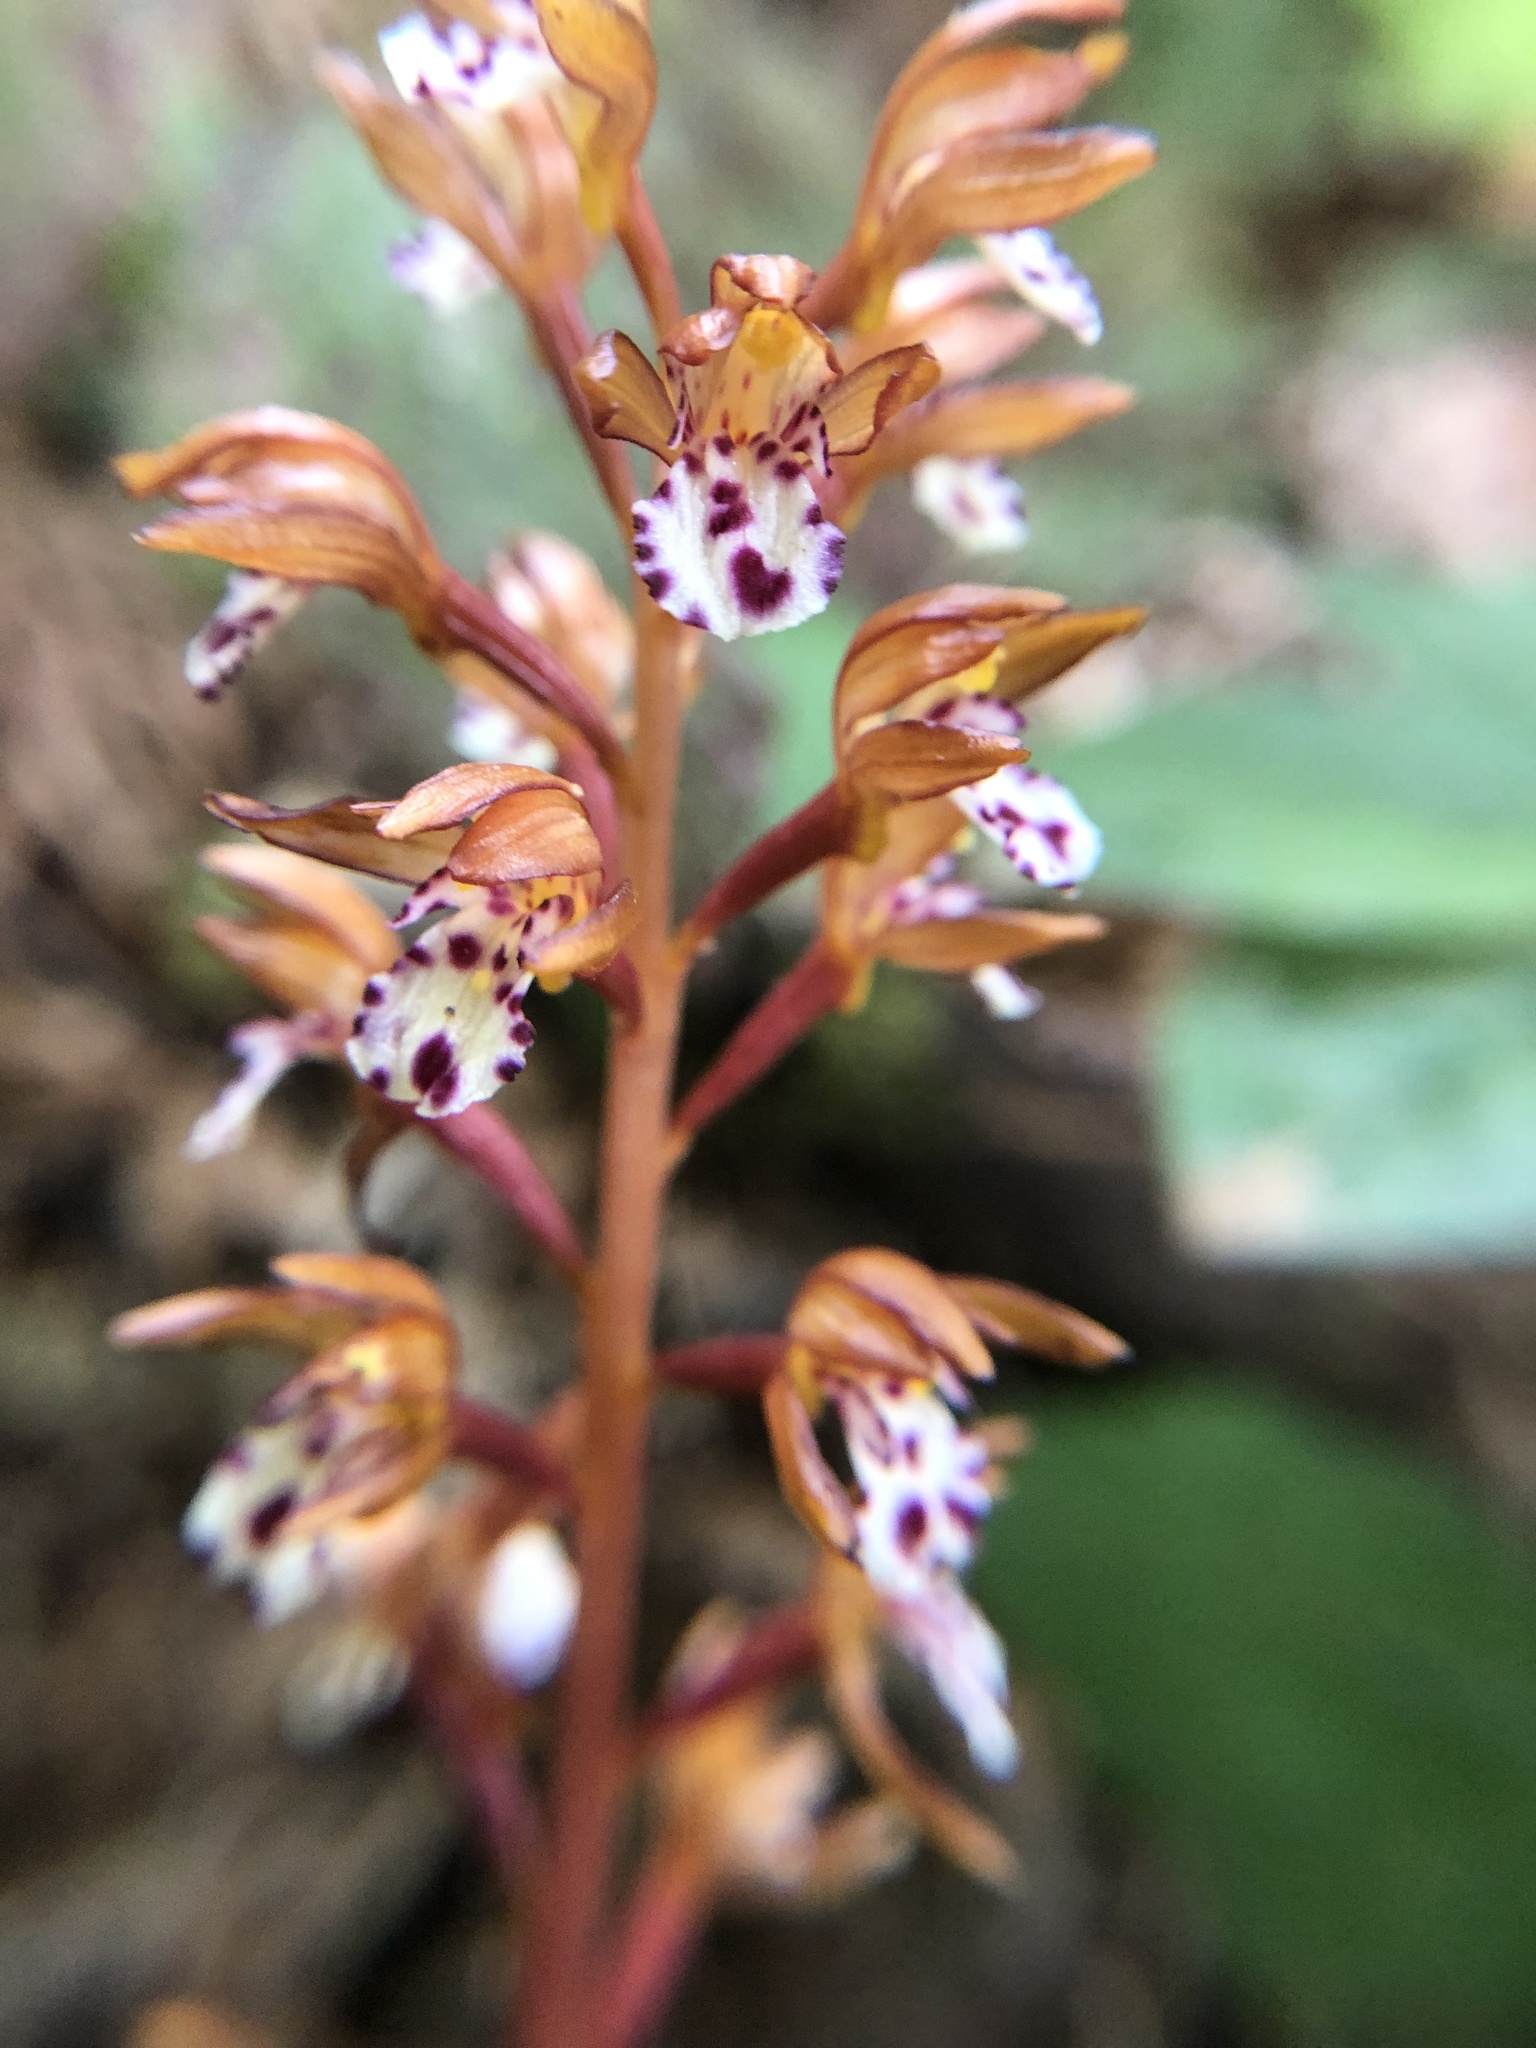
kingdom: Plantae
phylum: Tracheophyta
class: Liliopsida
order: Asparagales
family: Orchidaceae
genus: Corallorhiza
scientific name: Corallorhiza maculata
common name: Spotted coralroot
